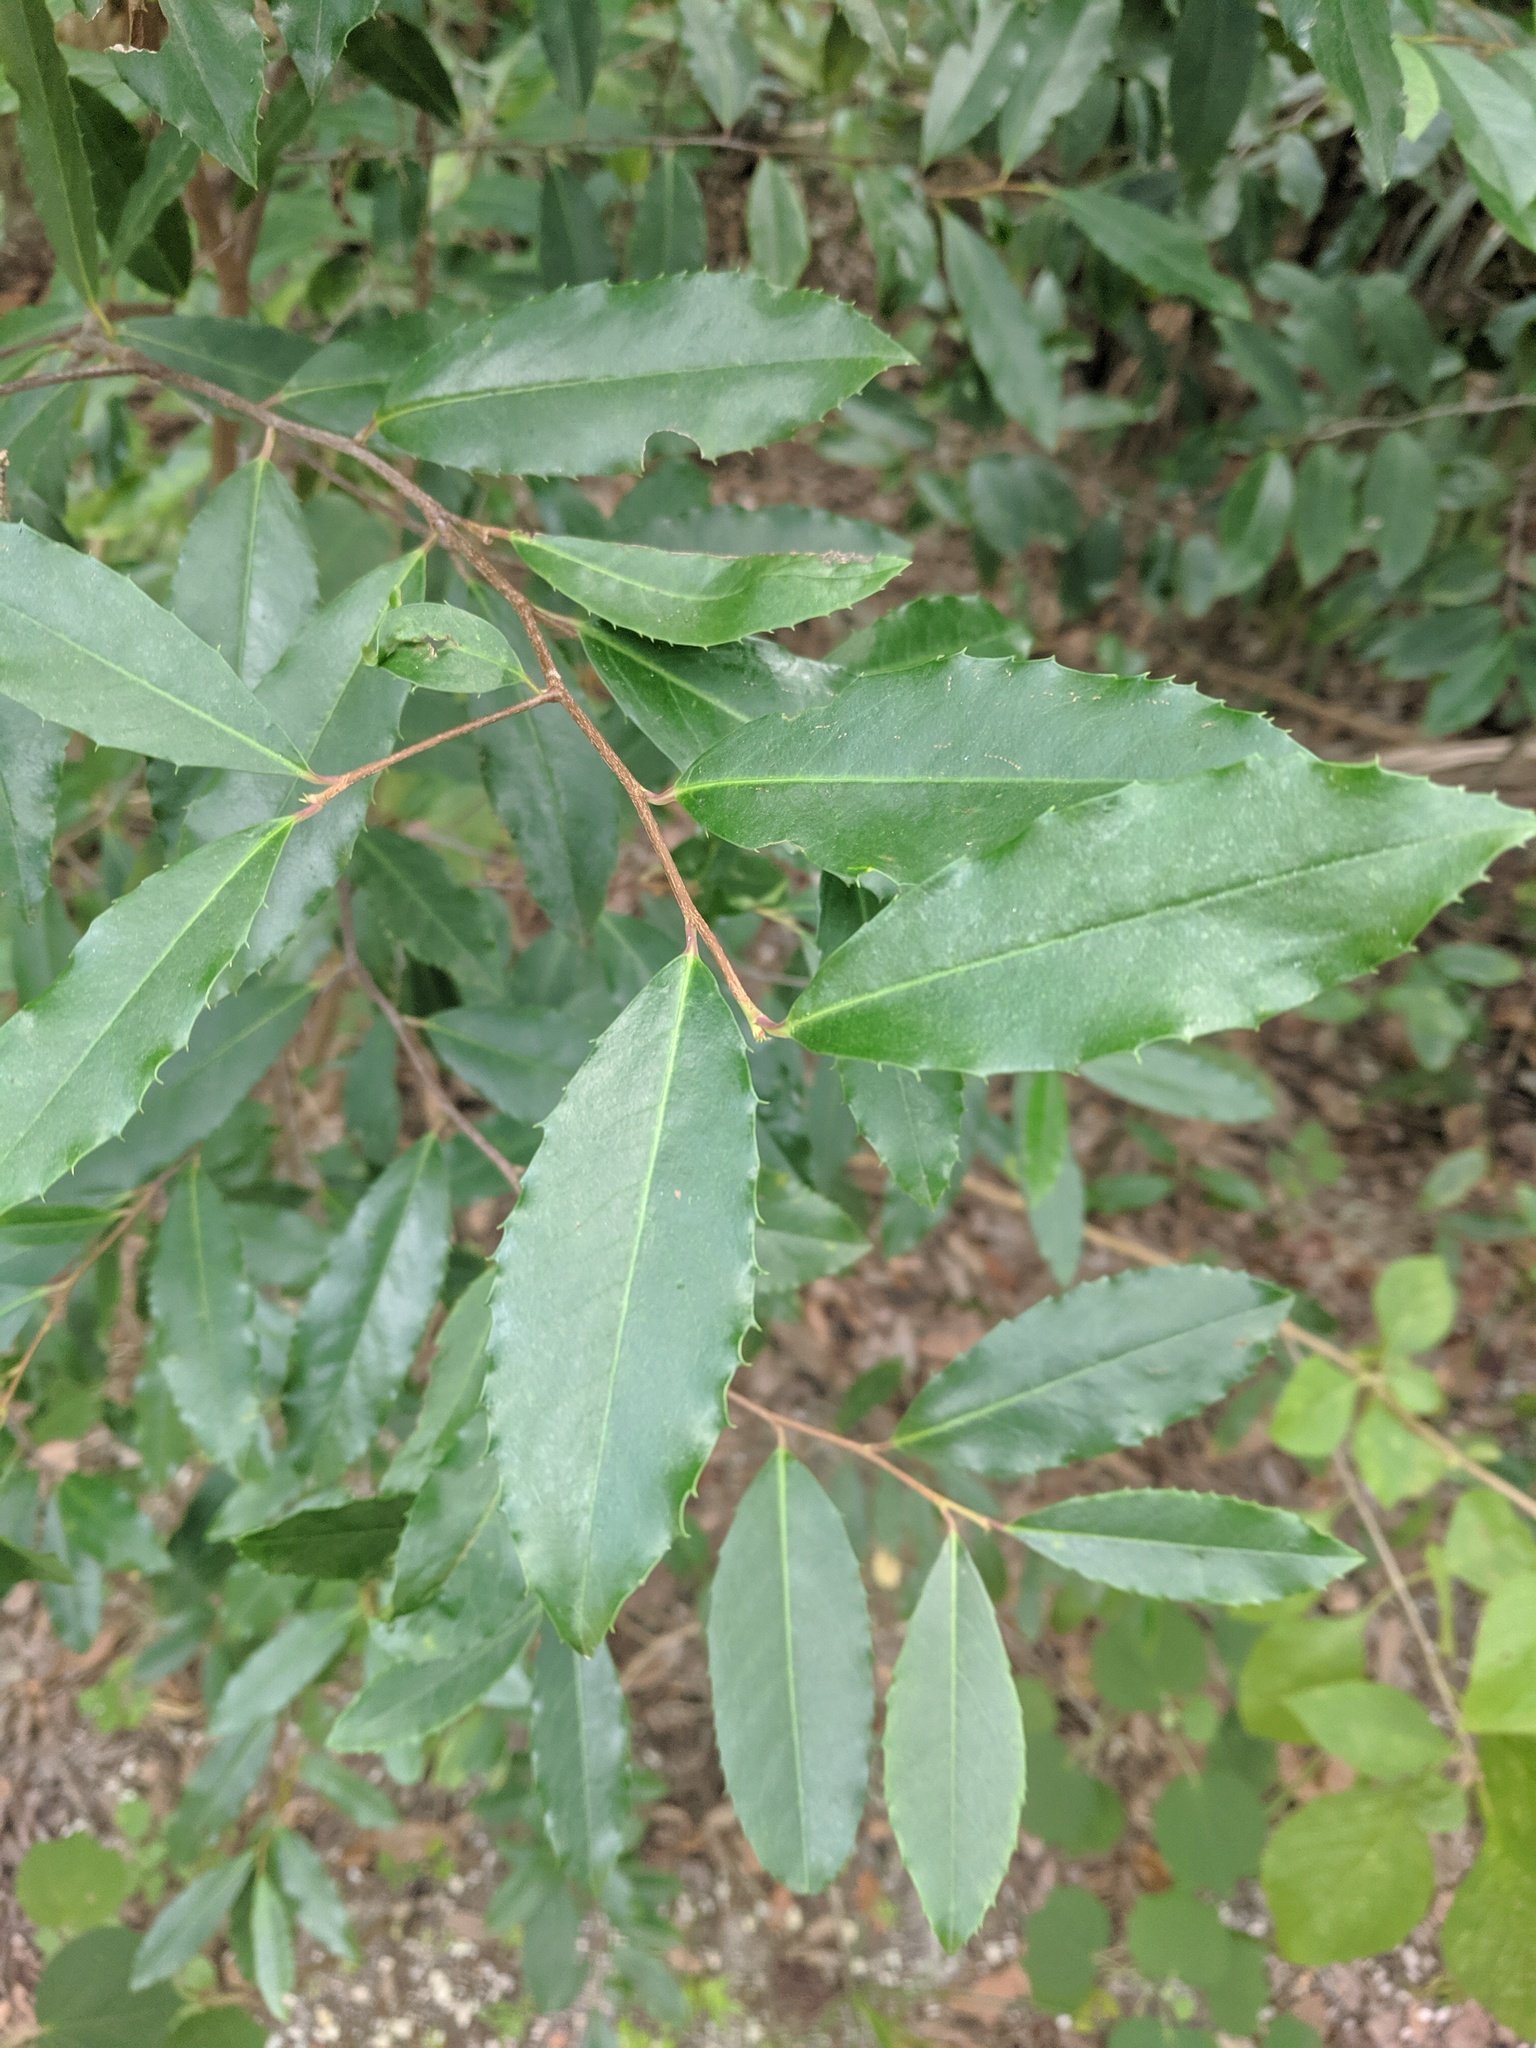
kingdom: Plantae
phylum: Tracheophyta
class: Magnoliopsida
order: Rosales
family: Rosaceae
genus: Prunus
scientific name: Prunus caroliniana
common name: Carolina laurel cherry
